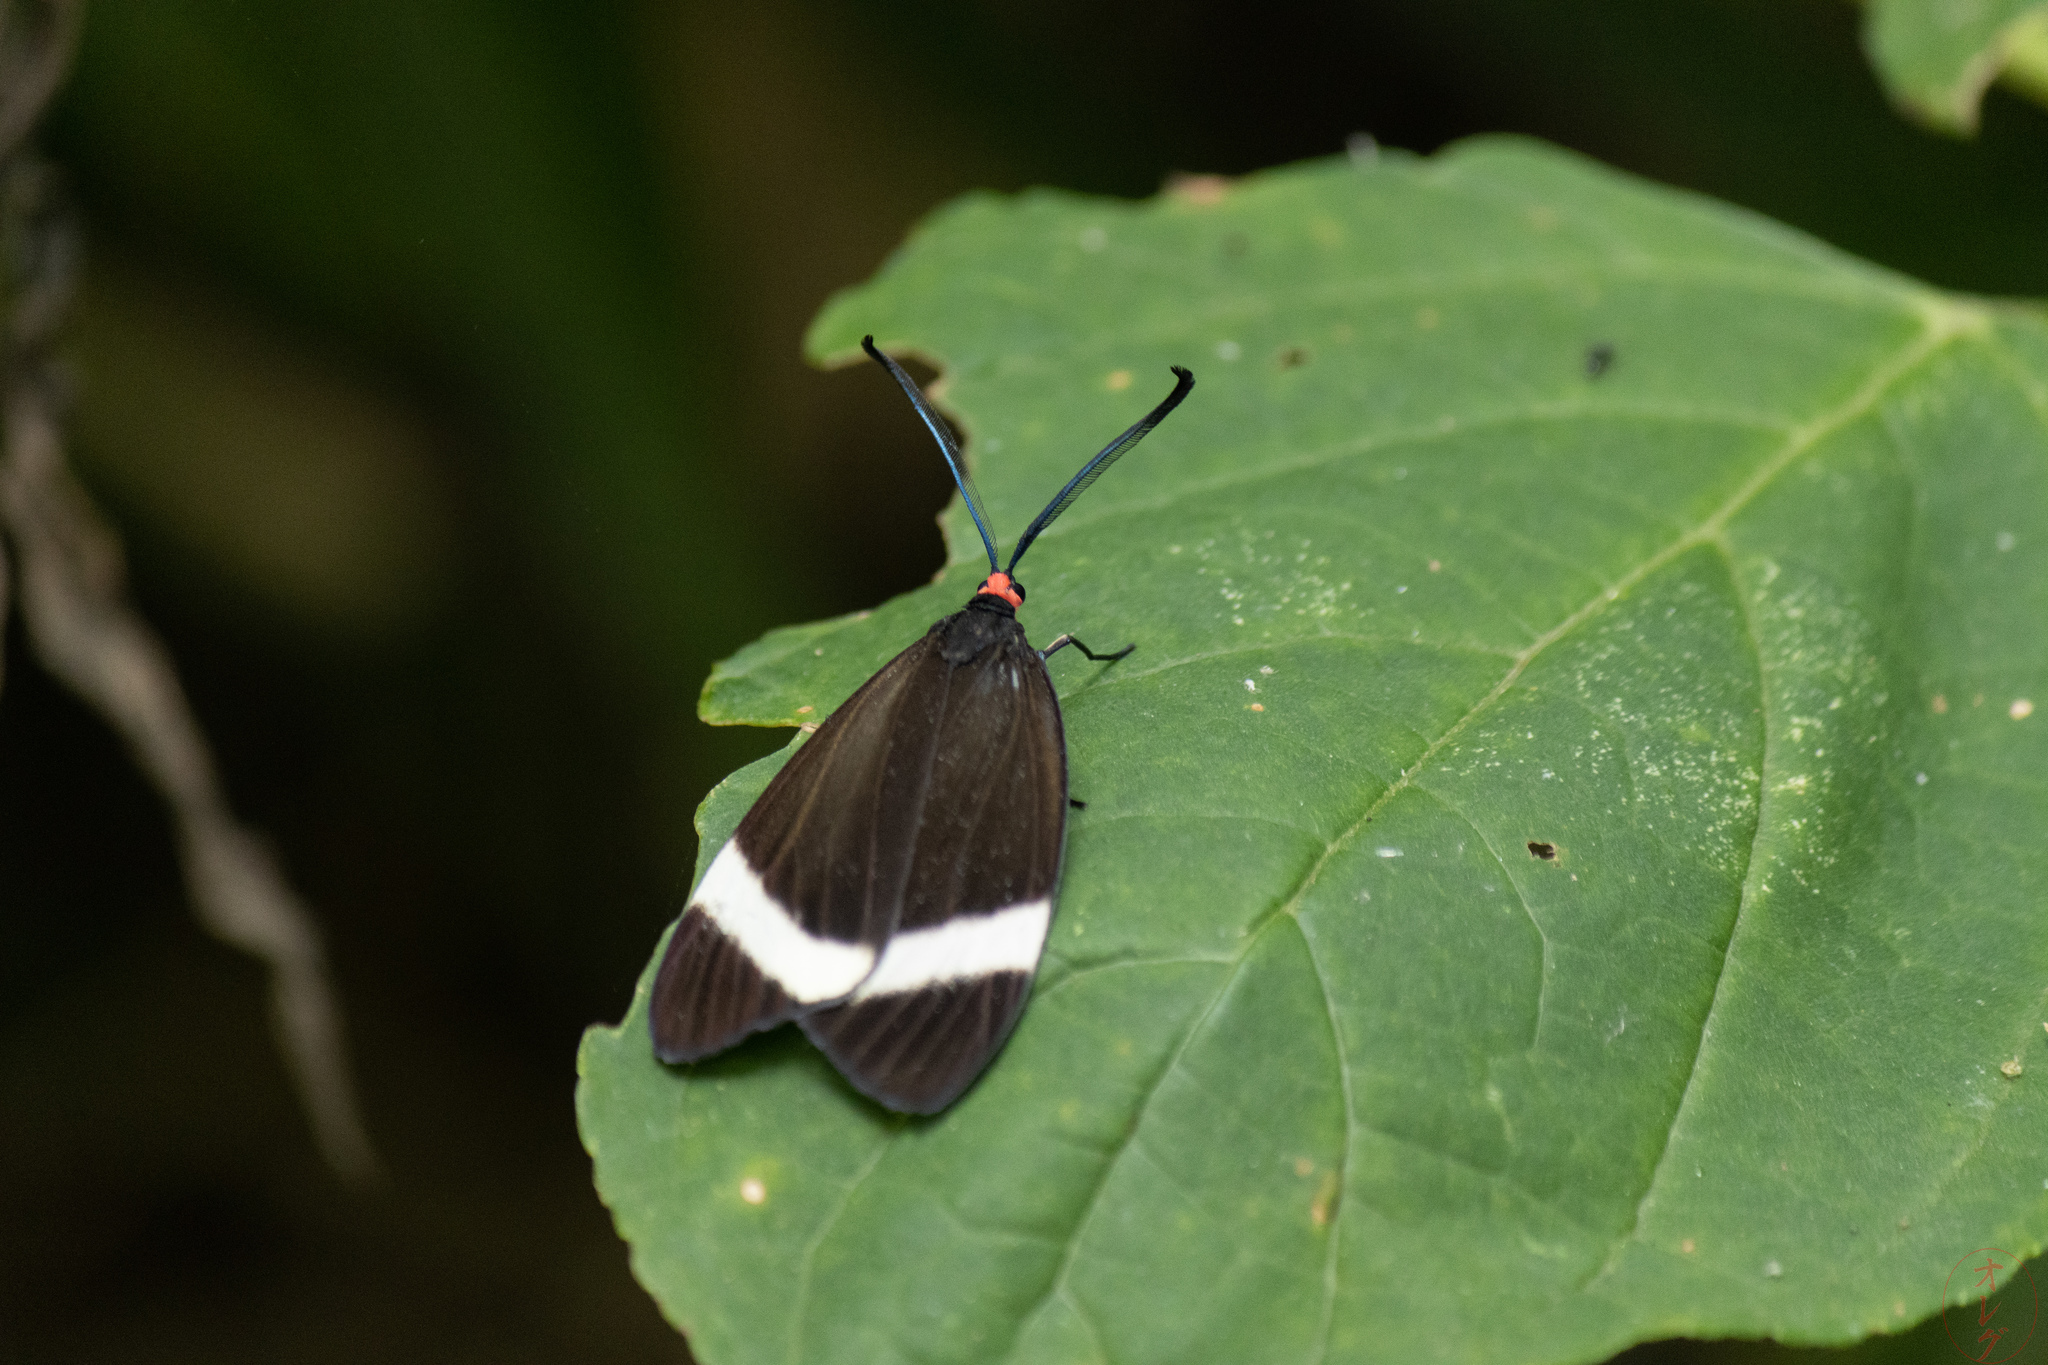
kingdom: Animalia
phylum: Arthropoda
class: Insecta
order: Lepidoptera
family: Zygaenidae
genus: Pidorus
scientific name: Pidorus glaucopis
